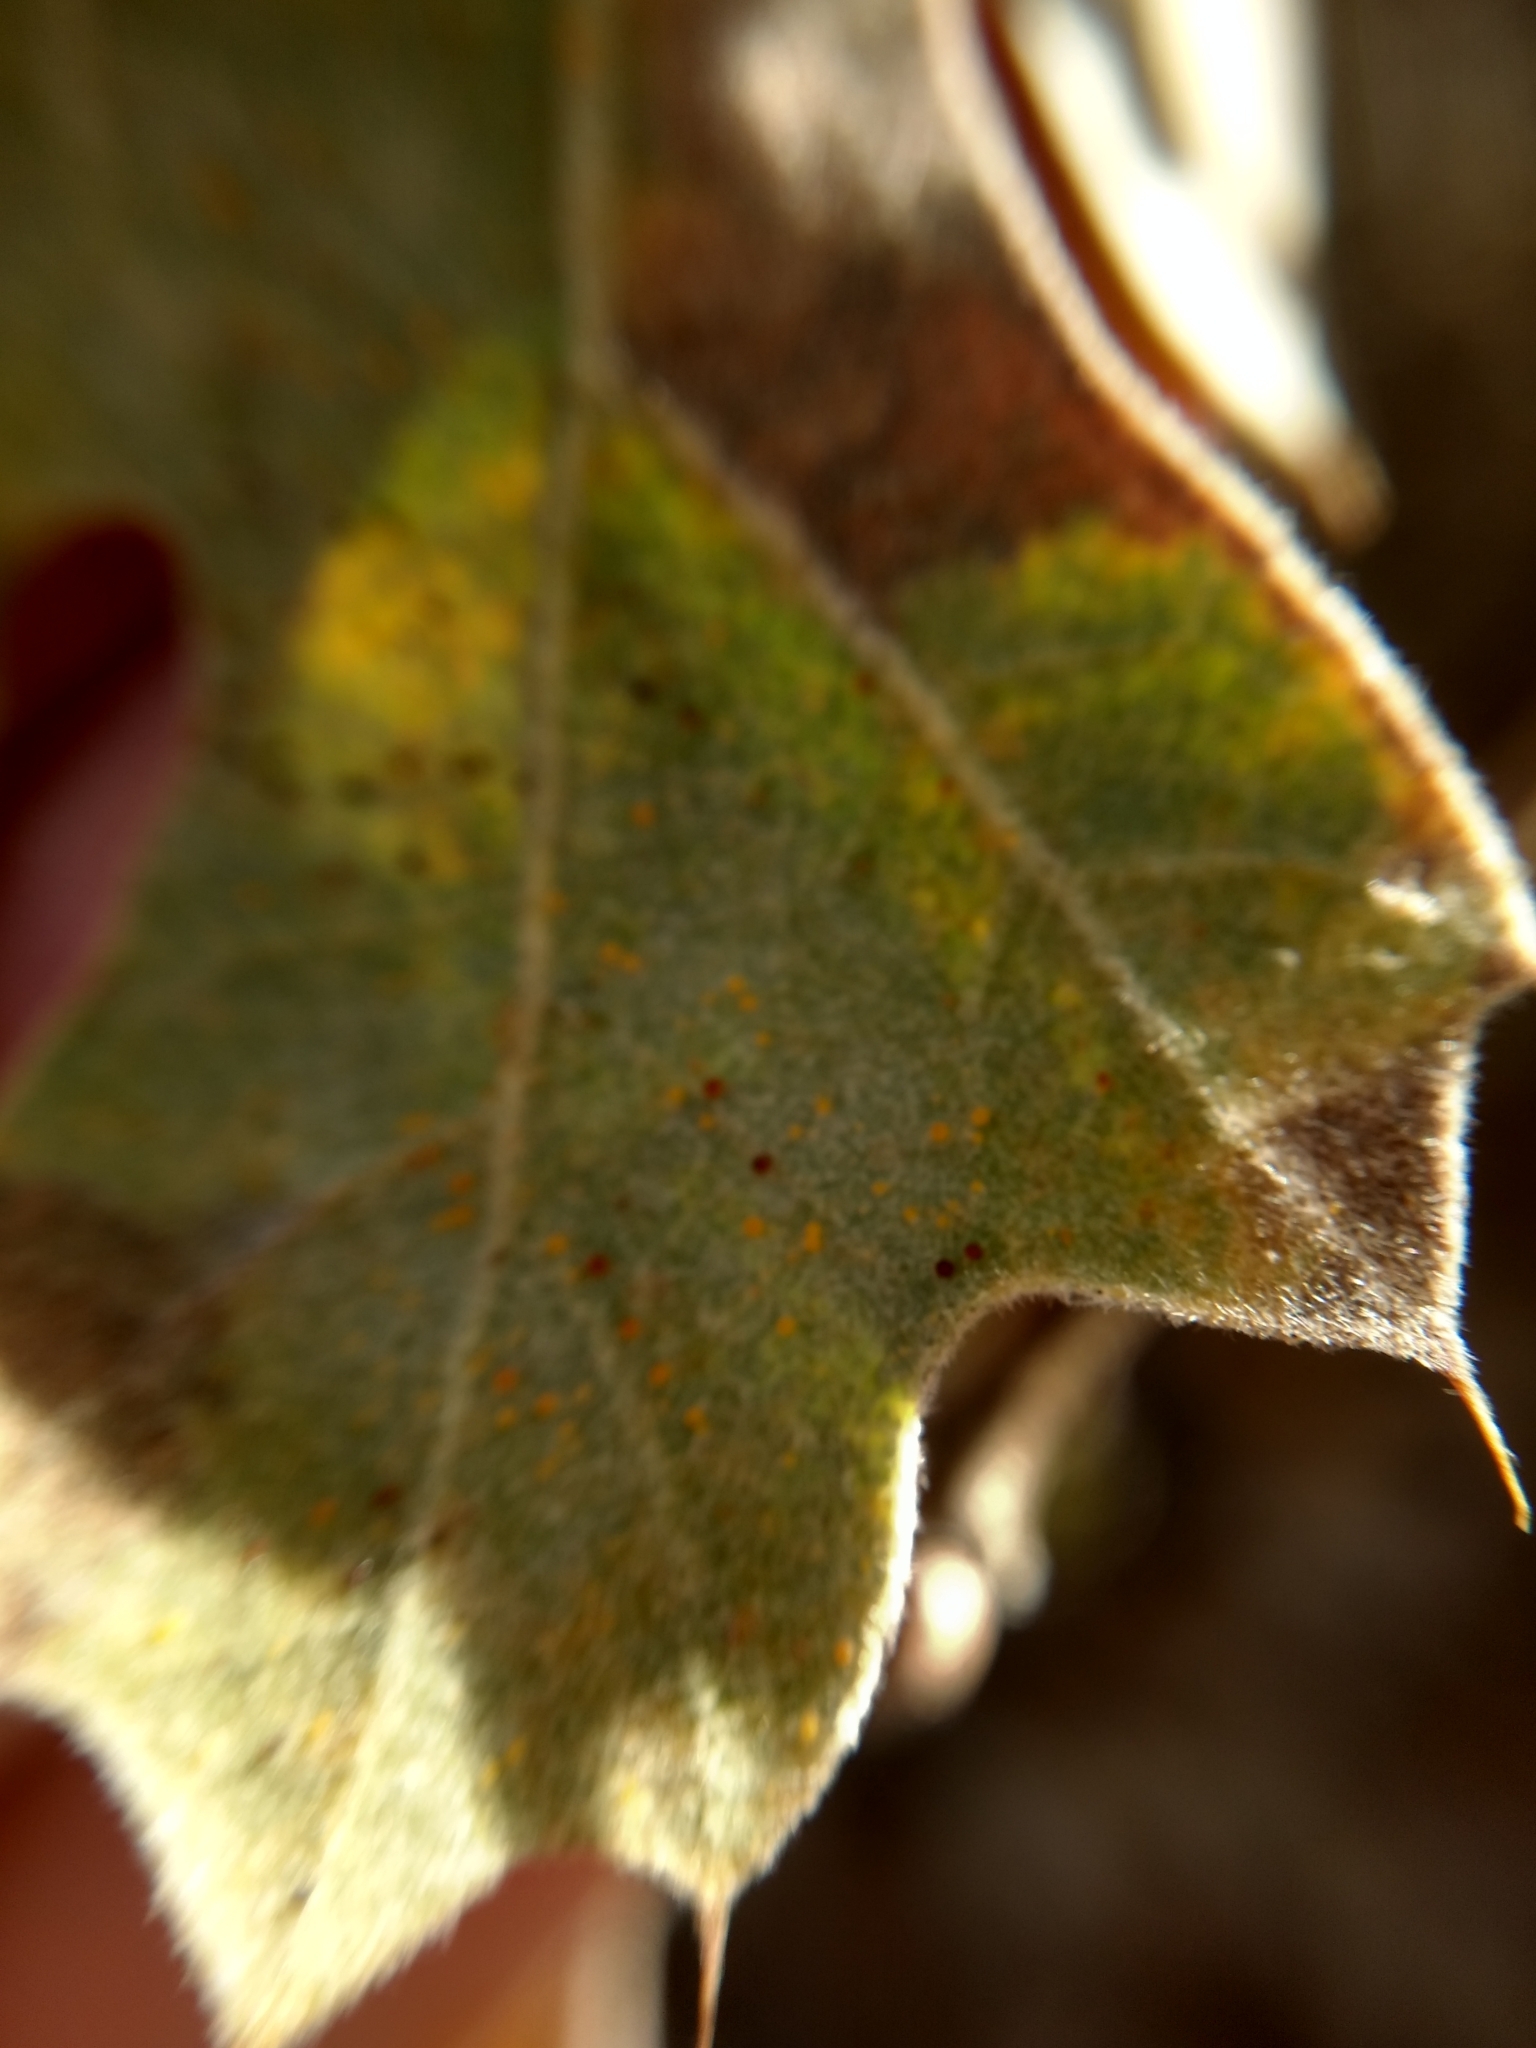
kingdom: Plantae
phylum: Tracheophyta
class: Magnoliopsida
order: Fagales
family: Fagaceae
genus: Quercus
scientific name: Quercus kelloggii
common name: California black oak
